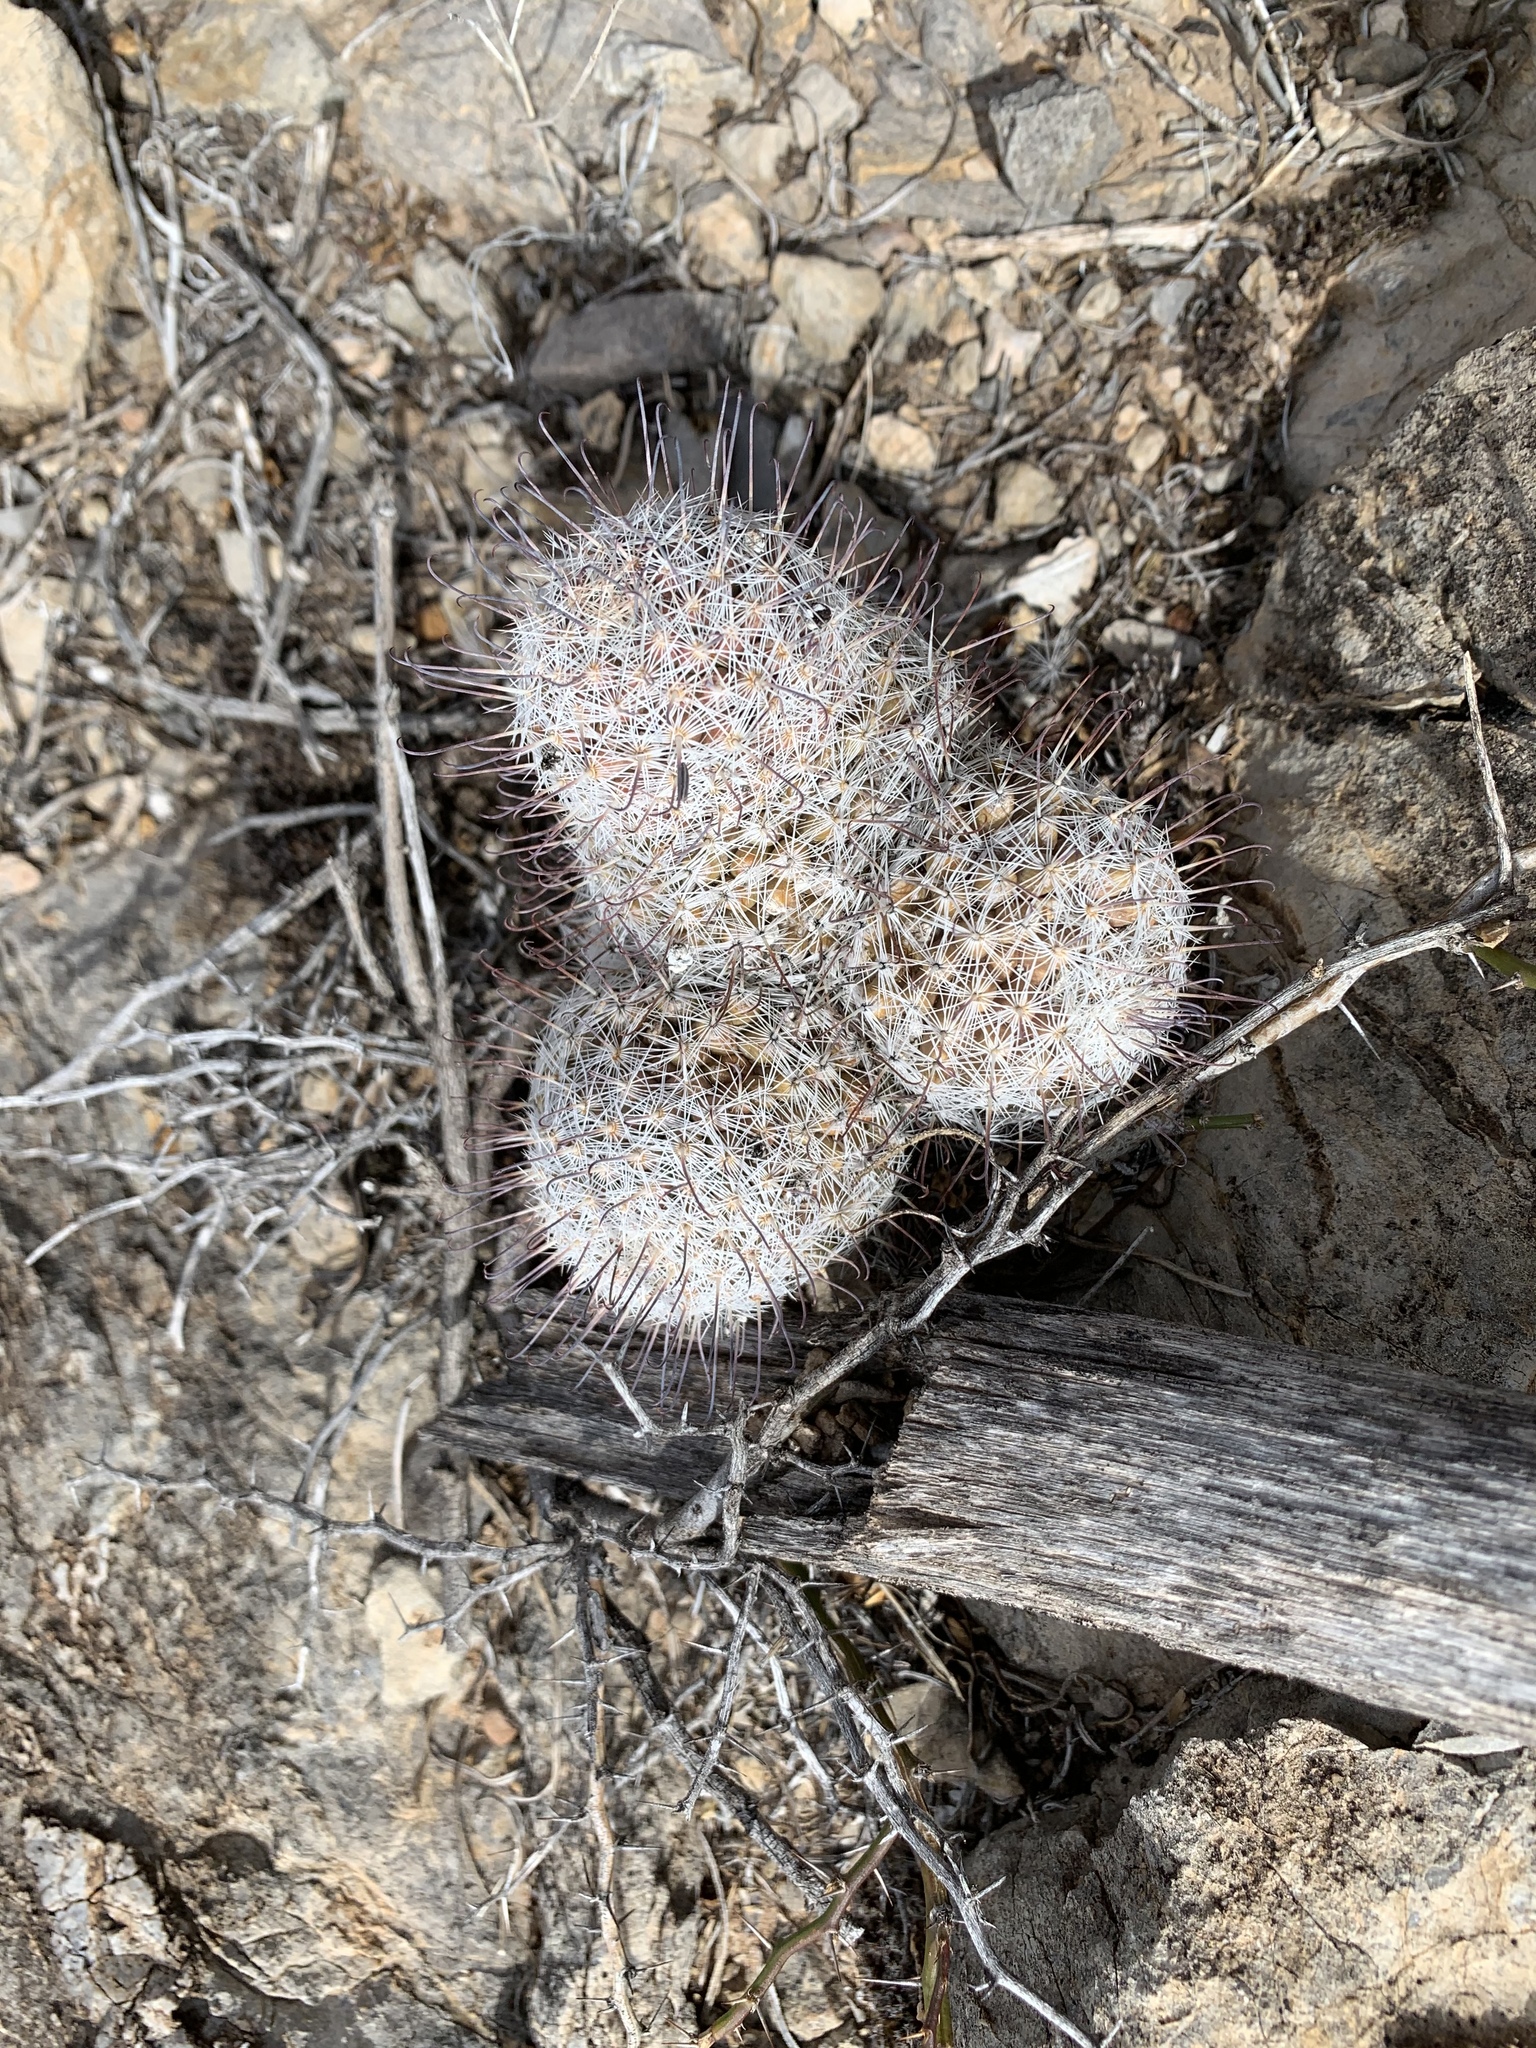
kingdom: Plantae
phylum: Tracheophyta
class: Magnoliopsida
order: Caryophyllales
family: Cactaceae
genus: Cochemiea
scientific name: Cochemiea grahamii
